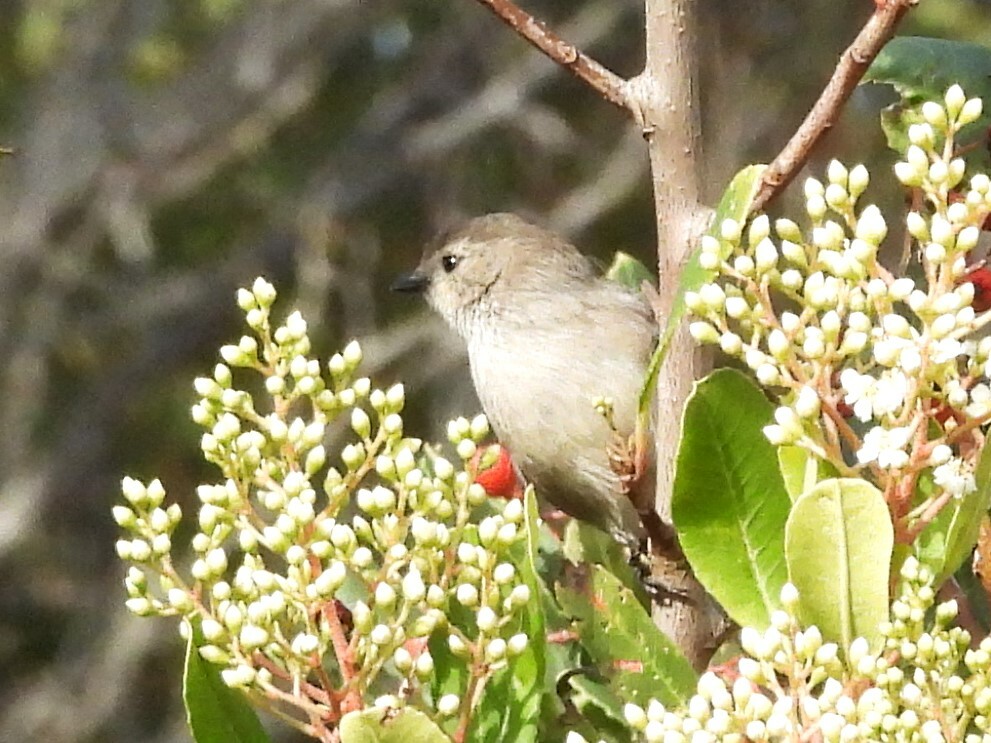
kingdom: Animalia
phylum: Chordata
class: Aves
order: Passeriformes
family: Aegithalidae
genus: Psaltriparus
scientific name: Psaltriparus minimus
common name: American bushtit
